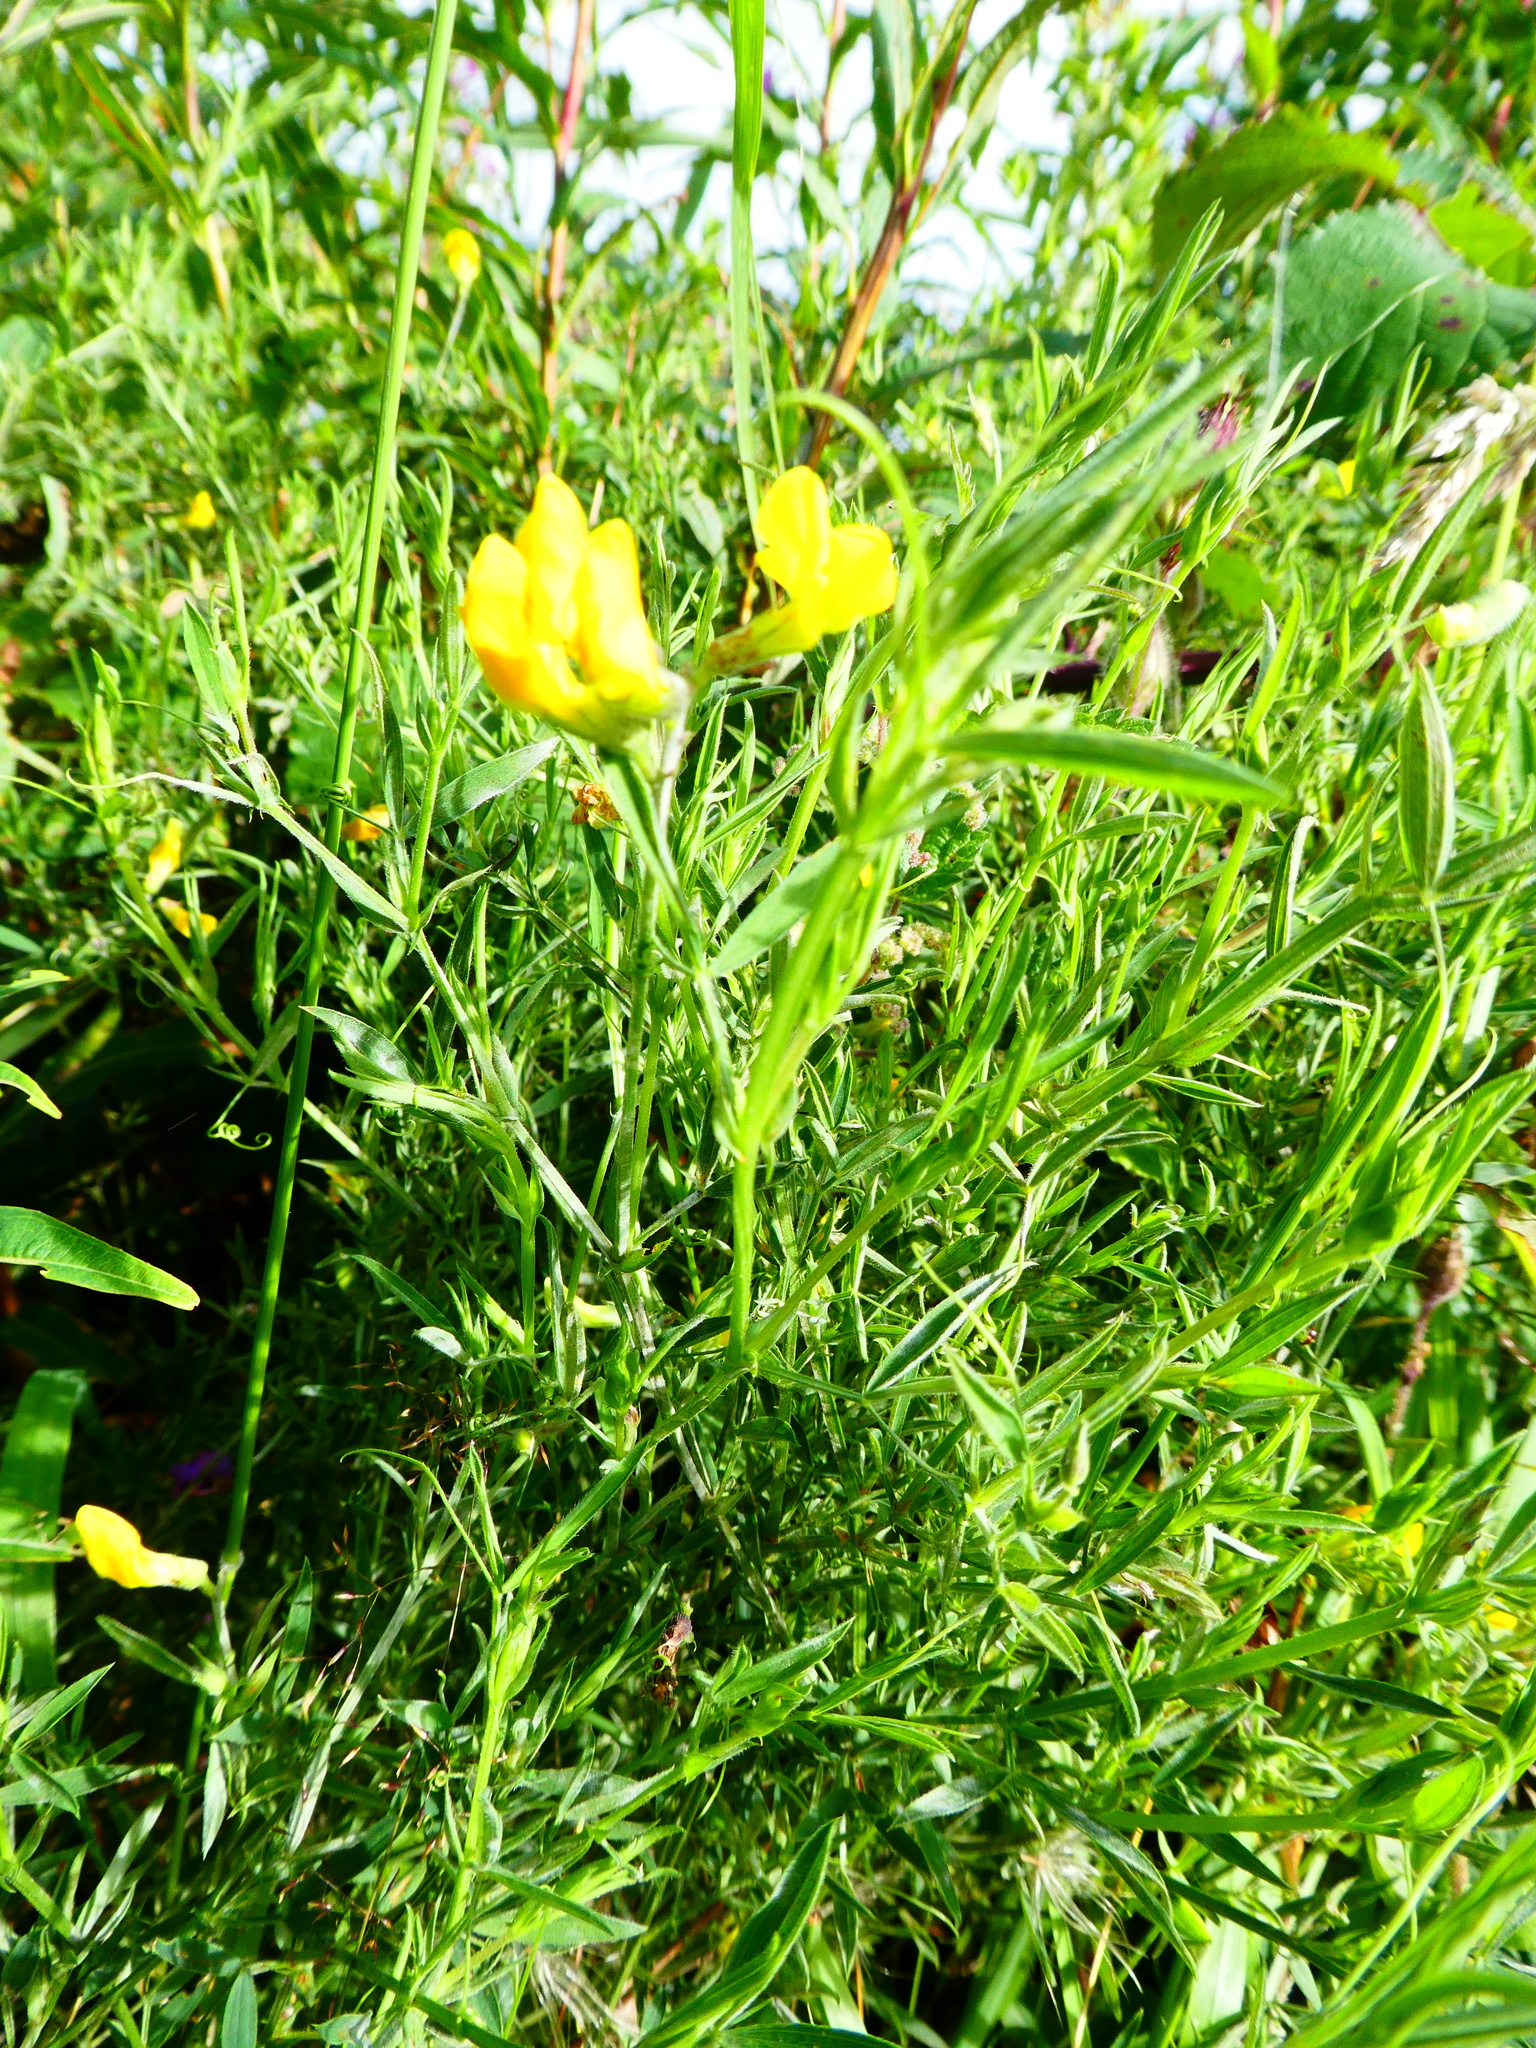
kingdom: Plantae
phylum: Tracheophyta
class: Magnoliopsida
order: Fabales
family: Fabaceae
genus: Lathyrus
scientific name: Lathyrus pratensis
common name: Meadow vetchling
